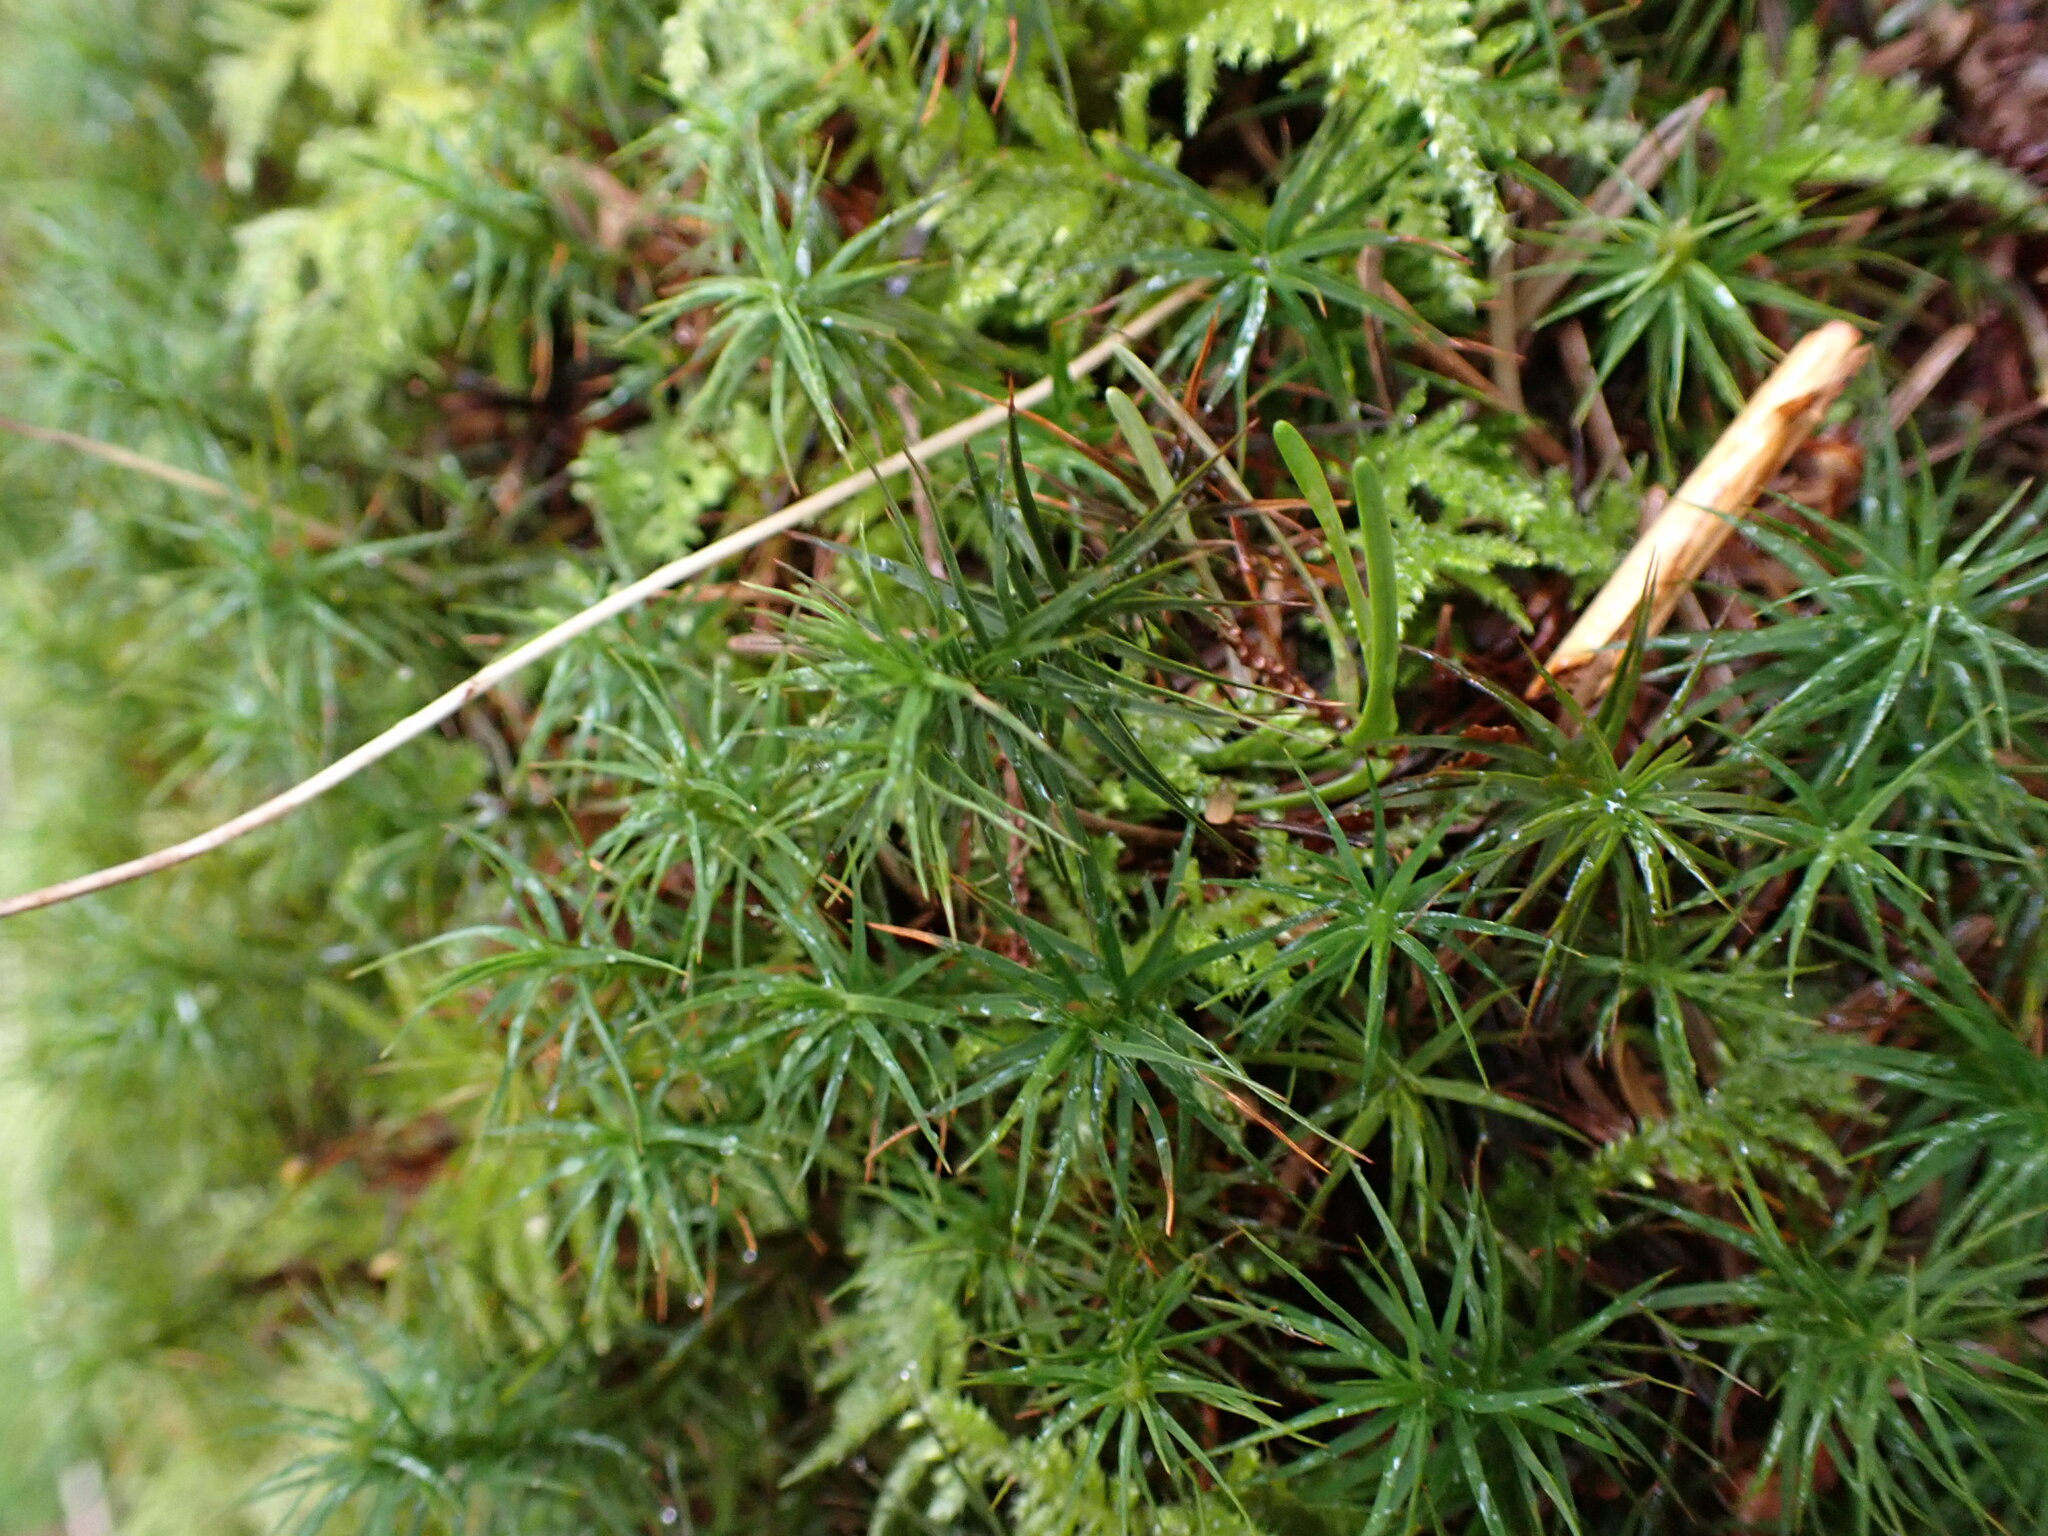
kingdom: Plantae
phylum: Bryophyta
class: Polytrichopsida
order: Polytrichales
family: Polytrichaceae
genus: Polytrichastrum
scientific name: Polytrichastrum alpinum
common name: Alpine haircap
